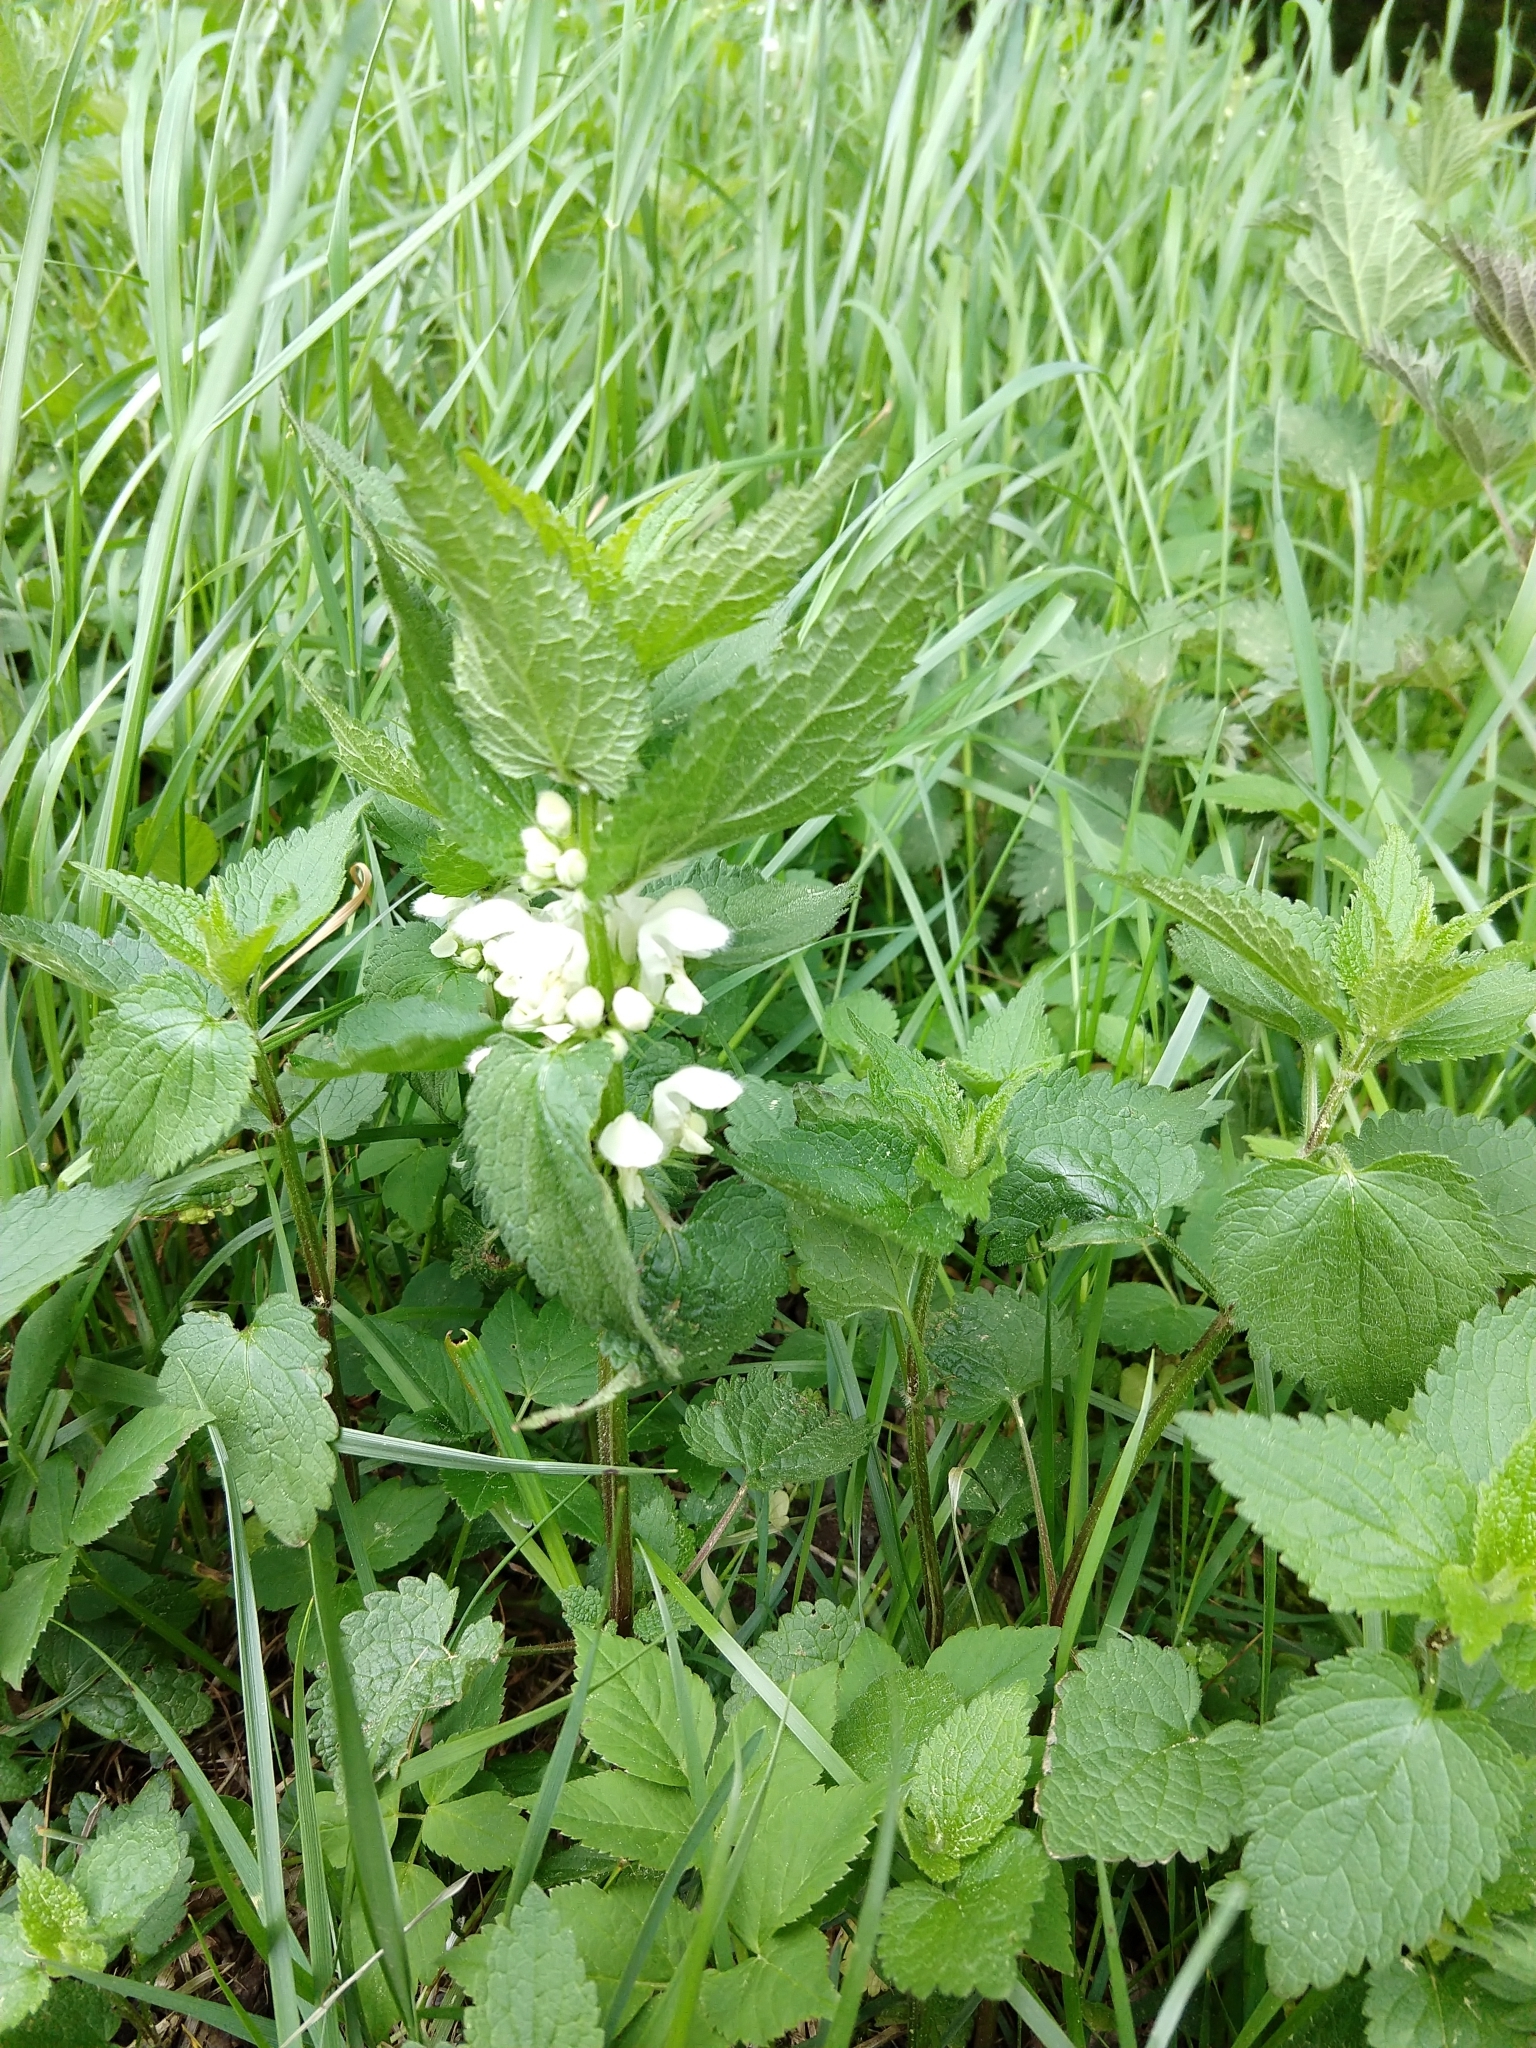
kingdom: Plantae
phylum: Tracheophyta
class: Magnoliopsida
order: Lamiales
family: Lamiaceae
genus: Lamium
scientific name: Lamium album
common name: White dead-nettle
